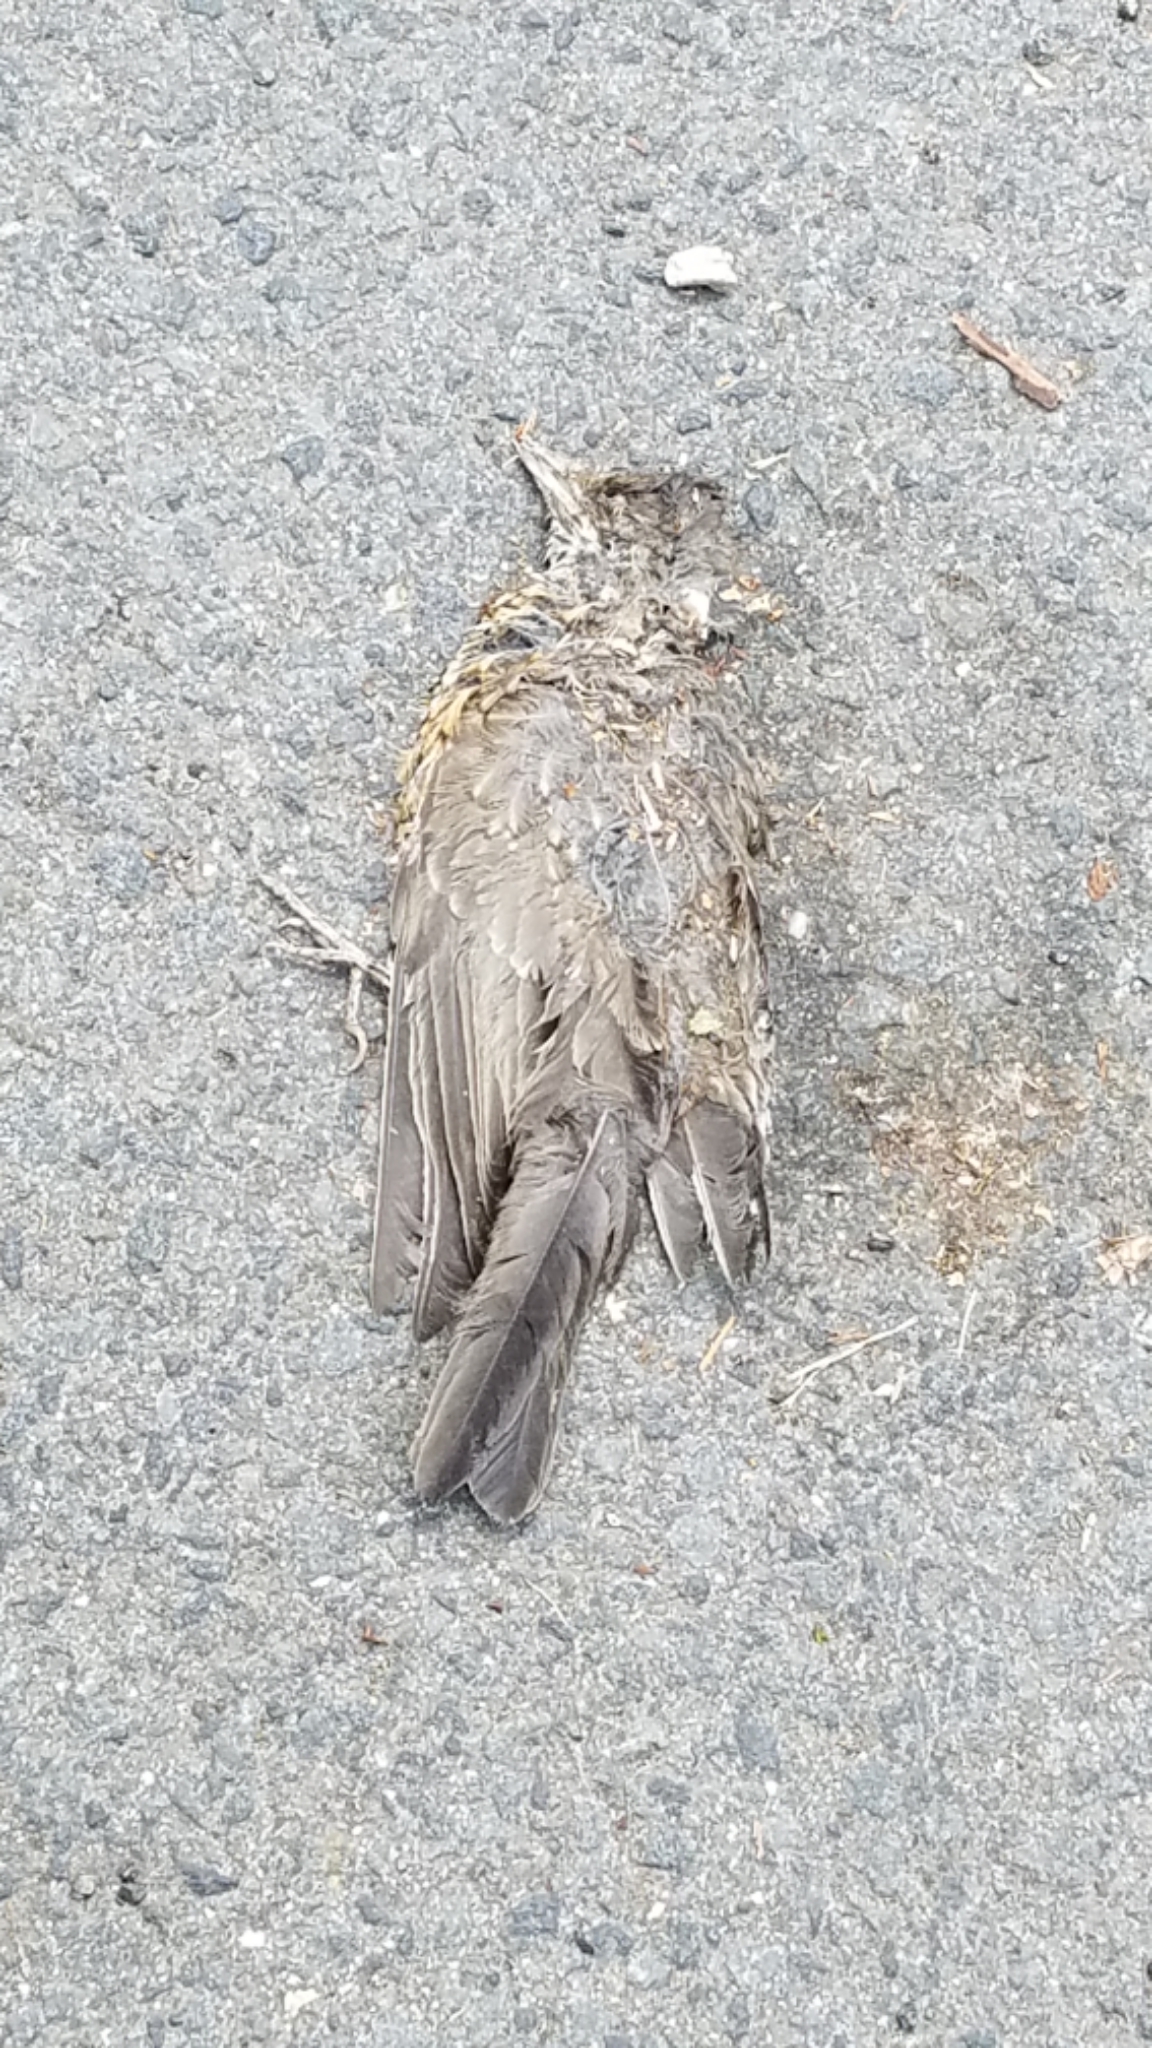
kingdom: Animalia
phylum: Chordata
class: Aves
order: Passeriformes
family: Turdidae
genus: Turdus
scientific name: Turdus migratorius
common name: American robin
